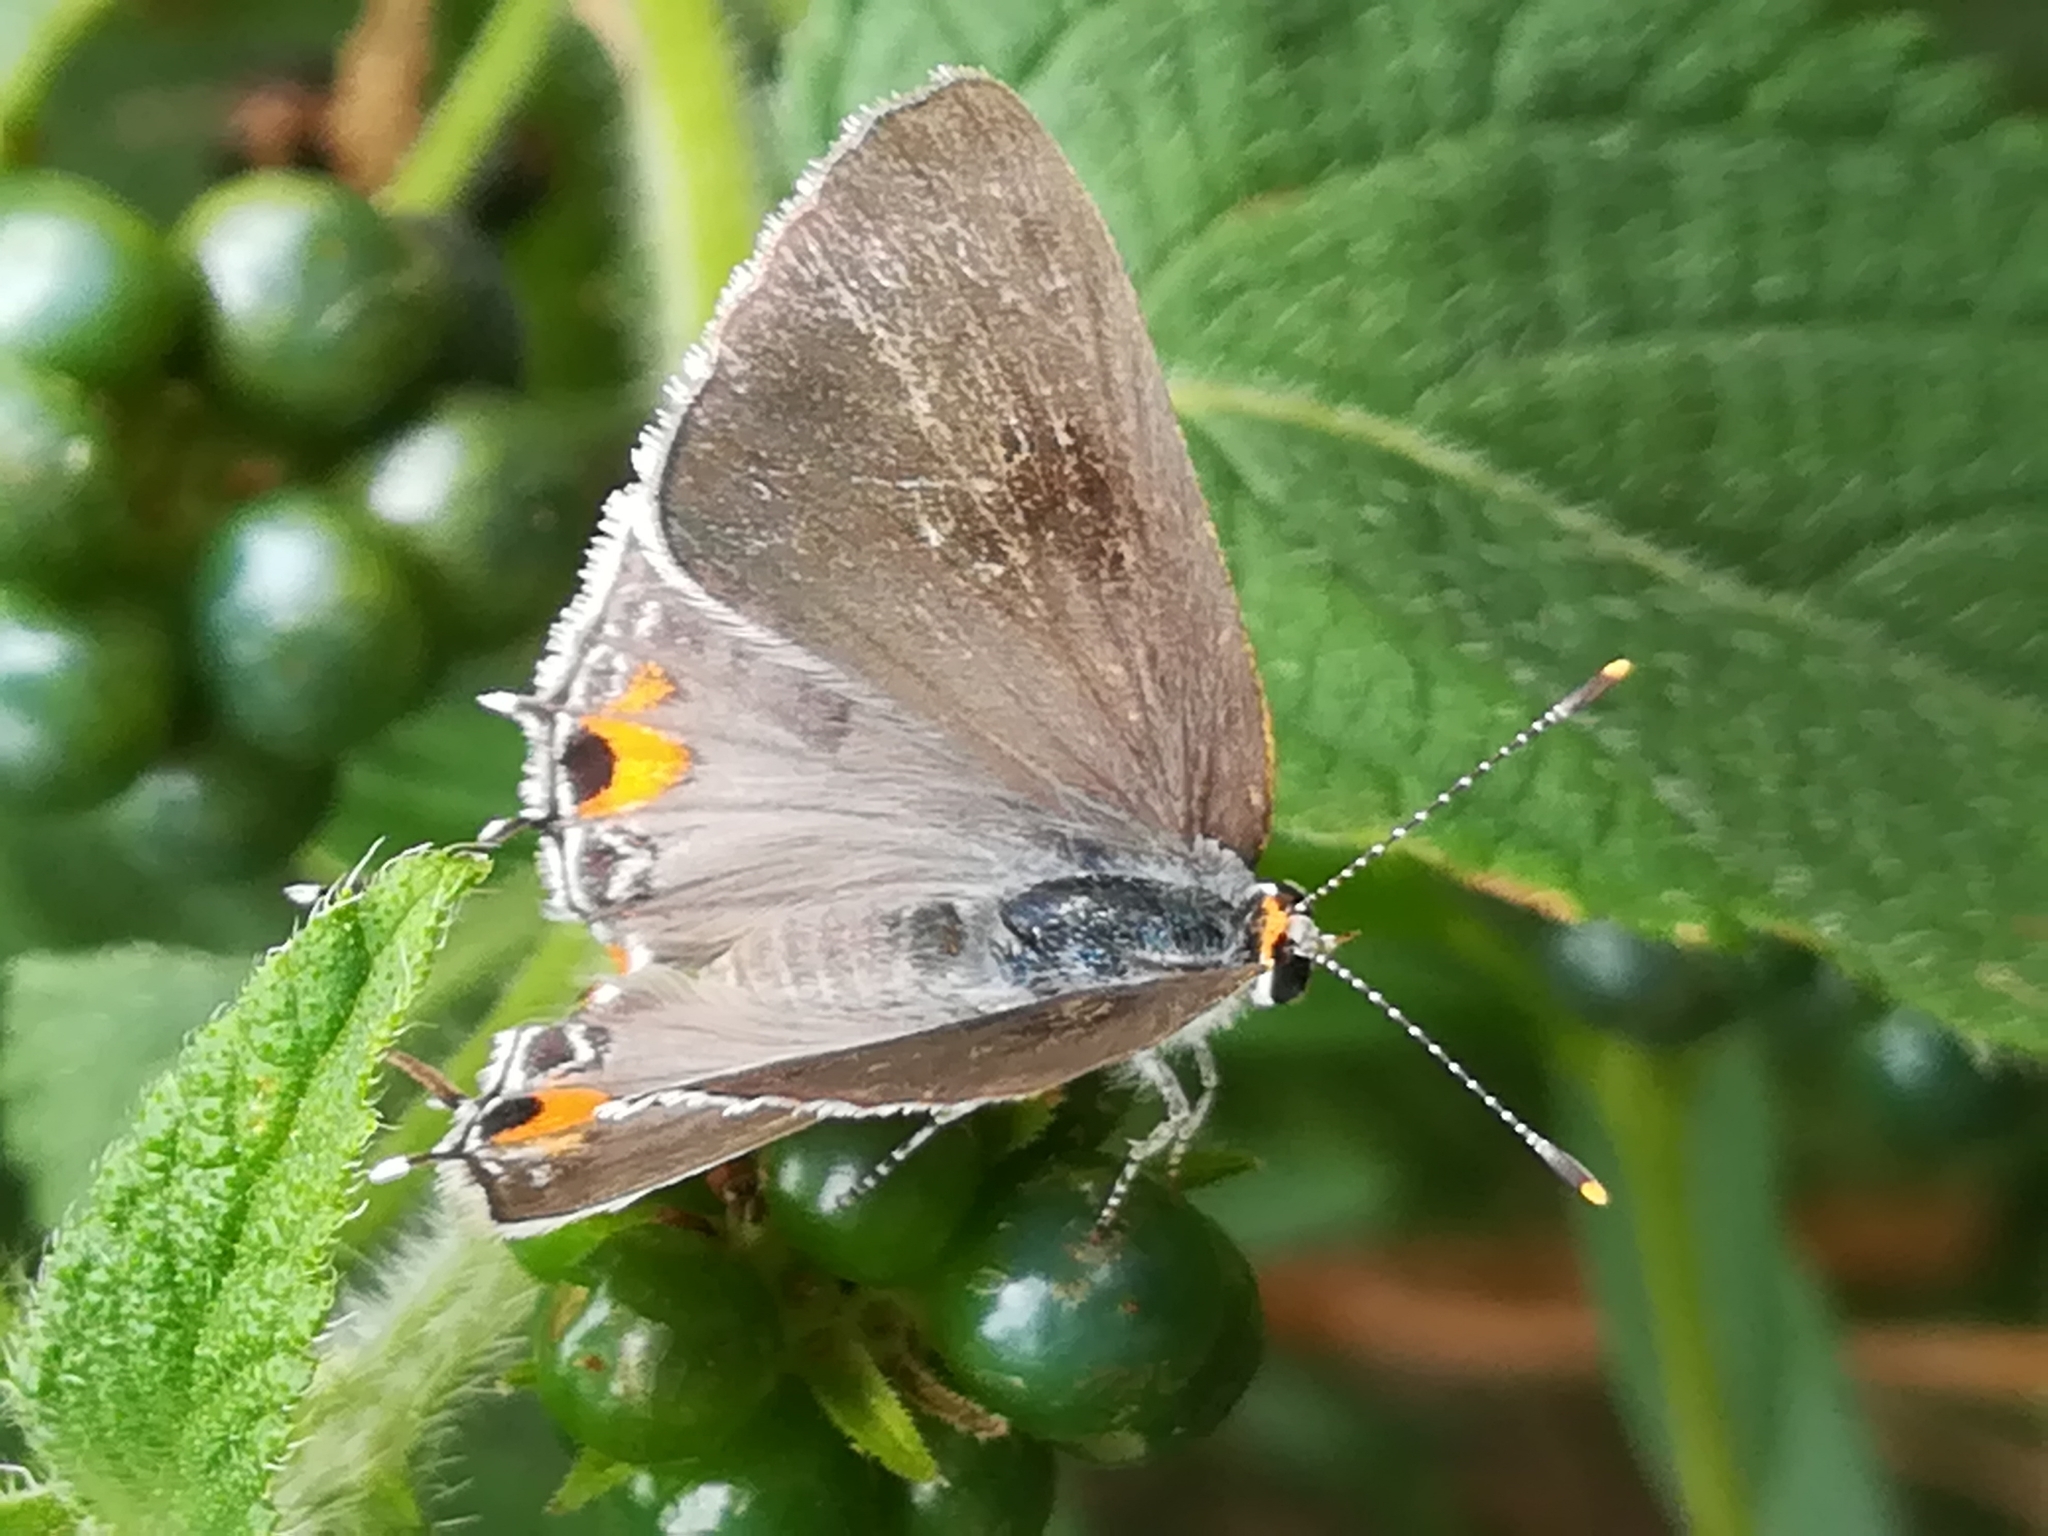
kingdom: Animalia
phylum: Arthropoda
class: Insecta
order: Lepidoptera
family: Lycaenidae
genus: Strymon
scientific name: Strymon melinus
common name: Gray hairstreak
